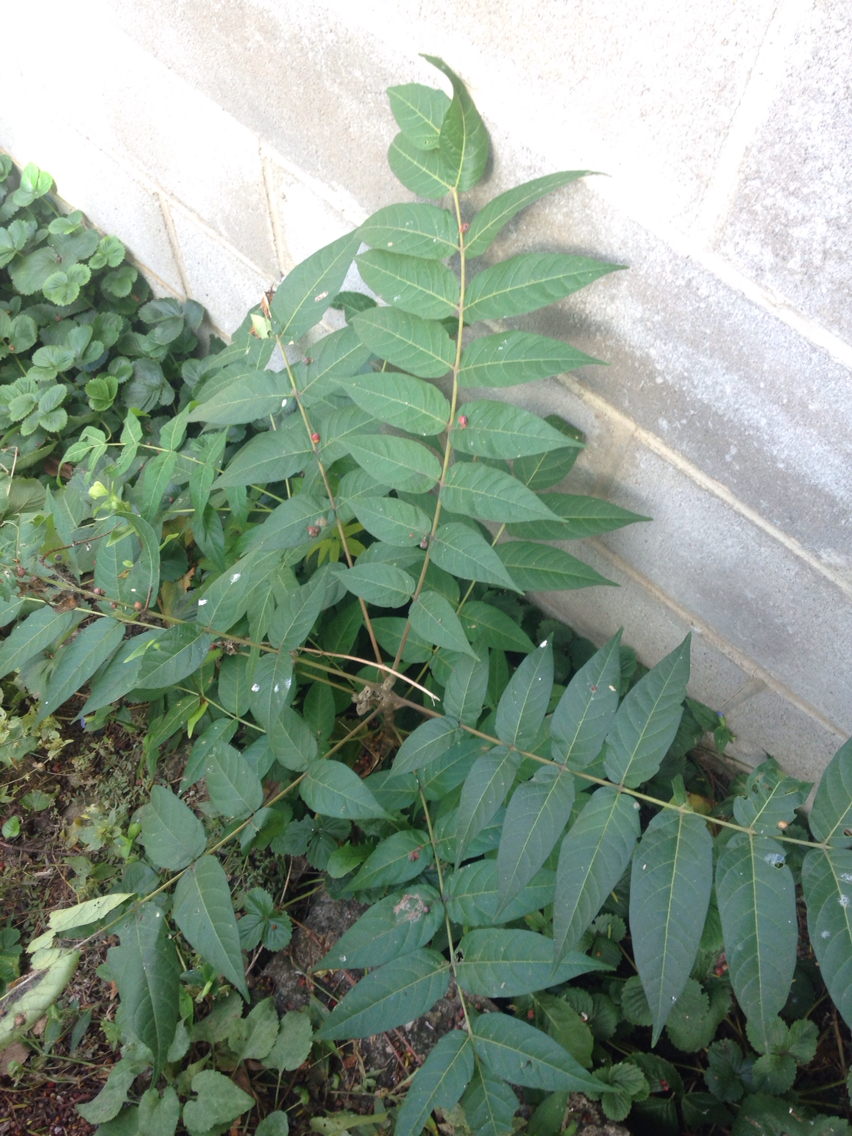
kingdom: Plantae
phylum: Tracheophyta
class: Magnoliopsida
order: Sapindales
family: Simaroubaceae
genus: Ailanthus
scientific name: Ailanthus altissima
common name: Tree-of-heaven
